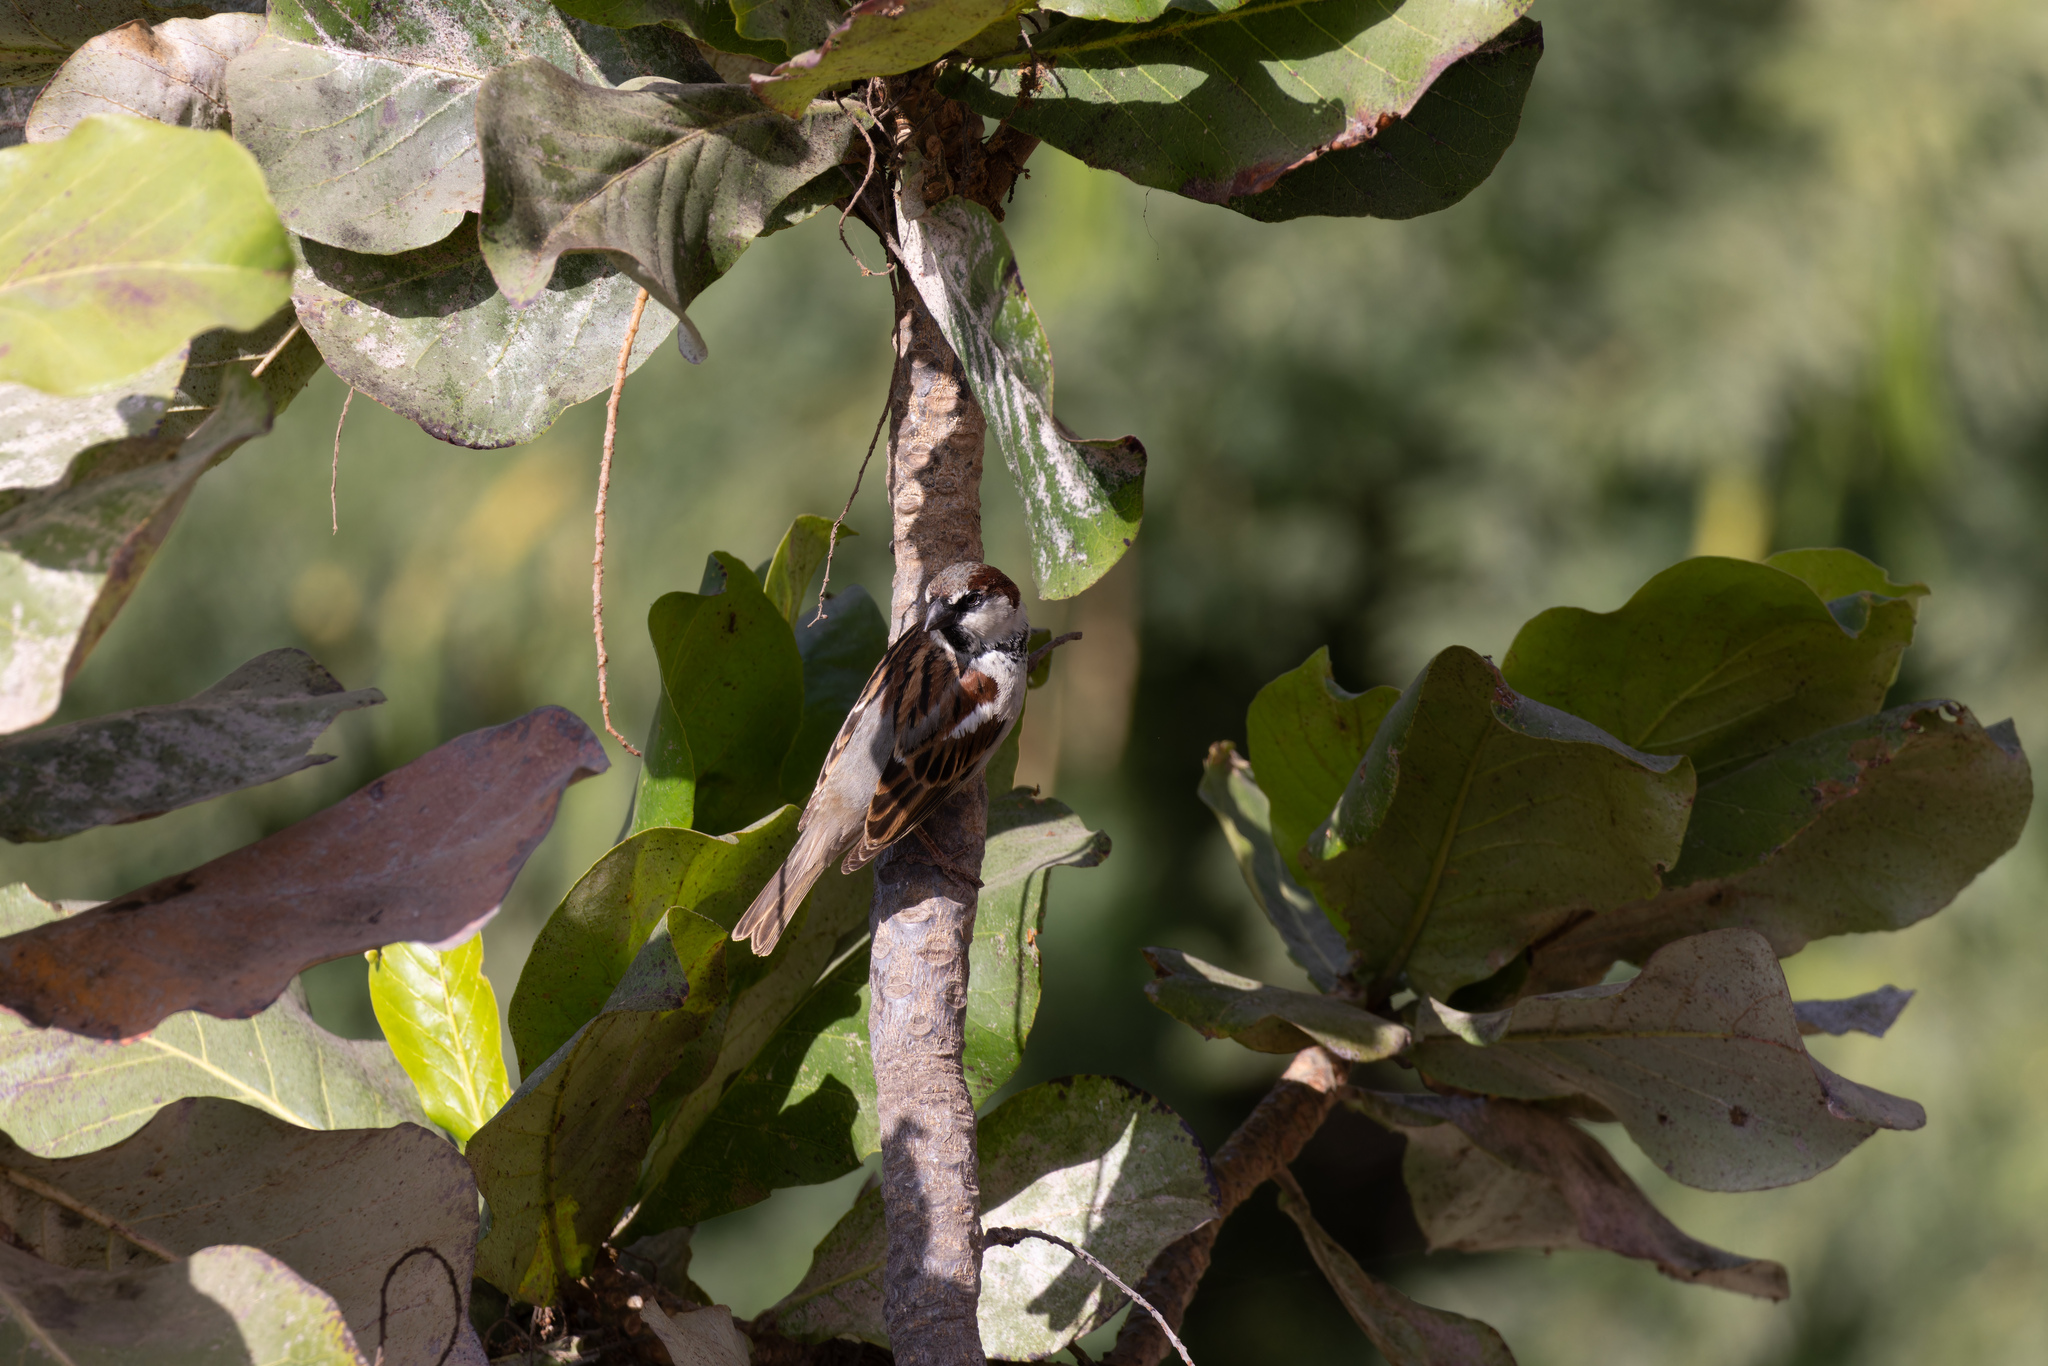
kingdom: Animalia
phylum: Chordata
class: Aves
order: Passeriformes
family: Passeridae
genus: Passer
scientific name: Passer domesticus
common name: House sparrow
